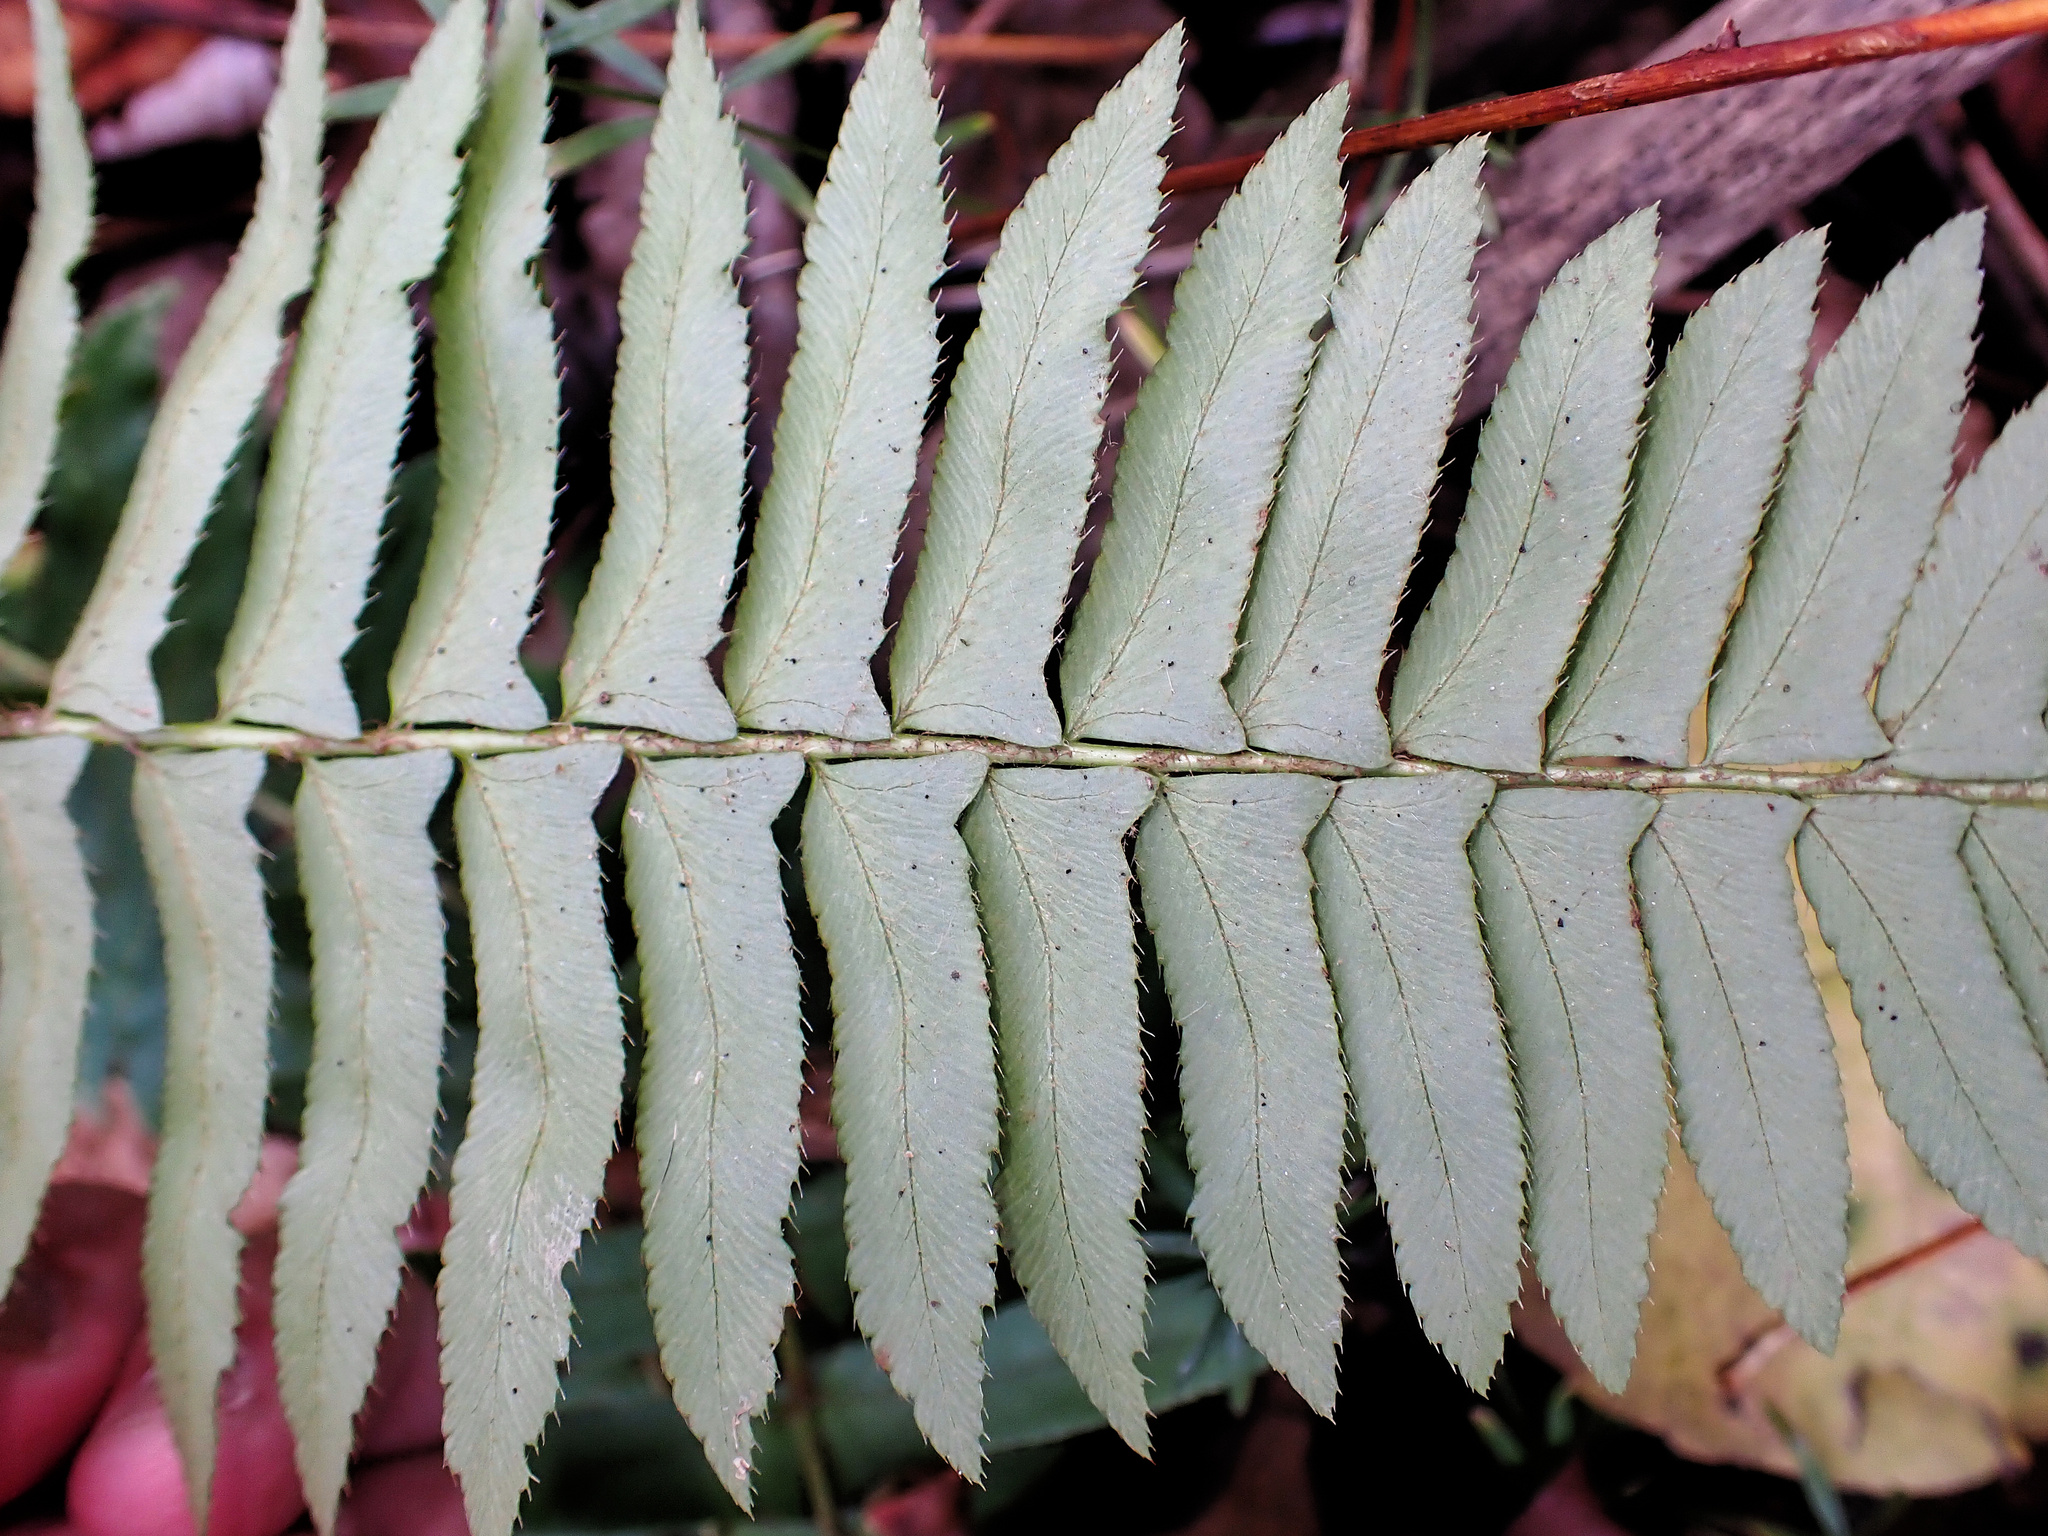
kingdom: Plantae
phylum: Tracheophyta
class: Polypodiopsida
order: Polypodiales
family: Dryopteridaceae
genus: Polystichum
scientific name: Polystichum acrostichoides
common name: Christmas fern
